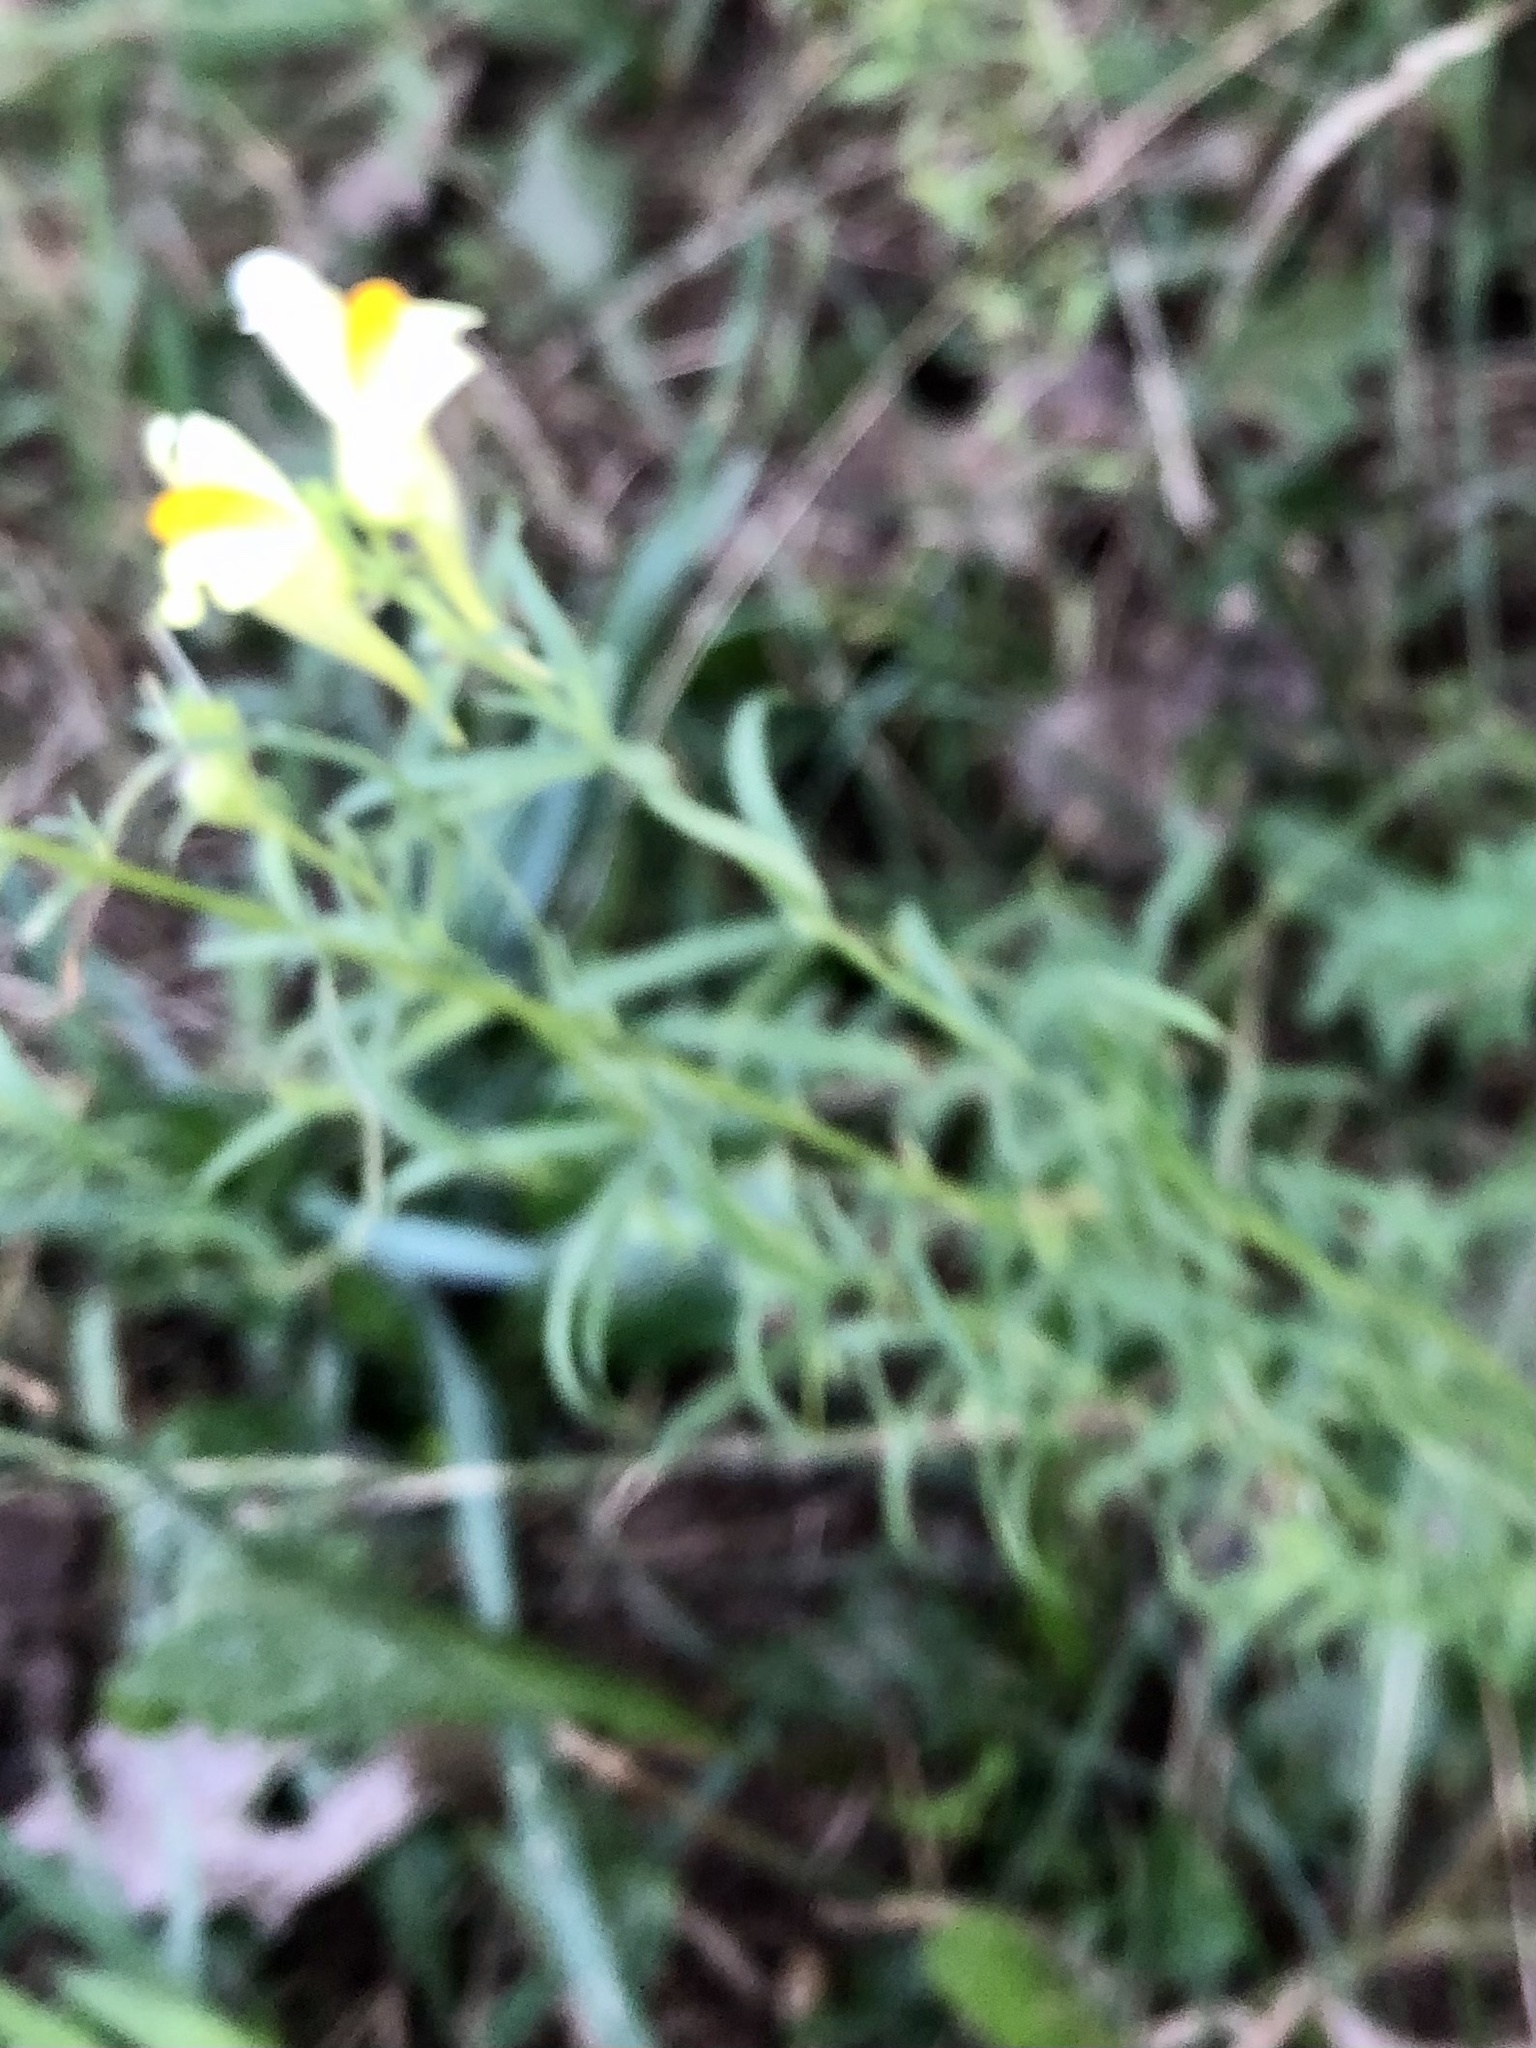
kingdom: Plantae
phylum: Tracheophyta
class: Magnoliopsida
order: Lamiales
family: Plantaginaceae
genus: Linaria
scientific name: Linaria vulgaris
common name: Butter and eggs
